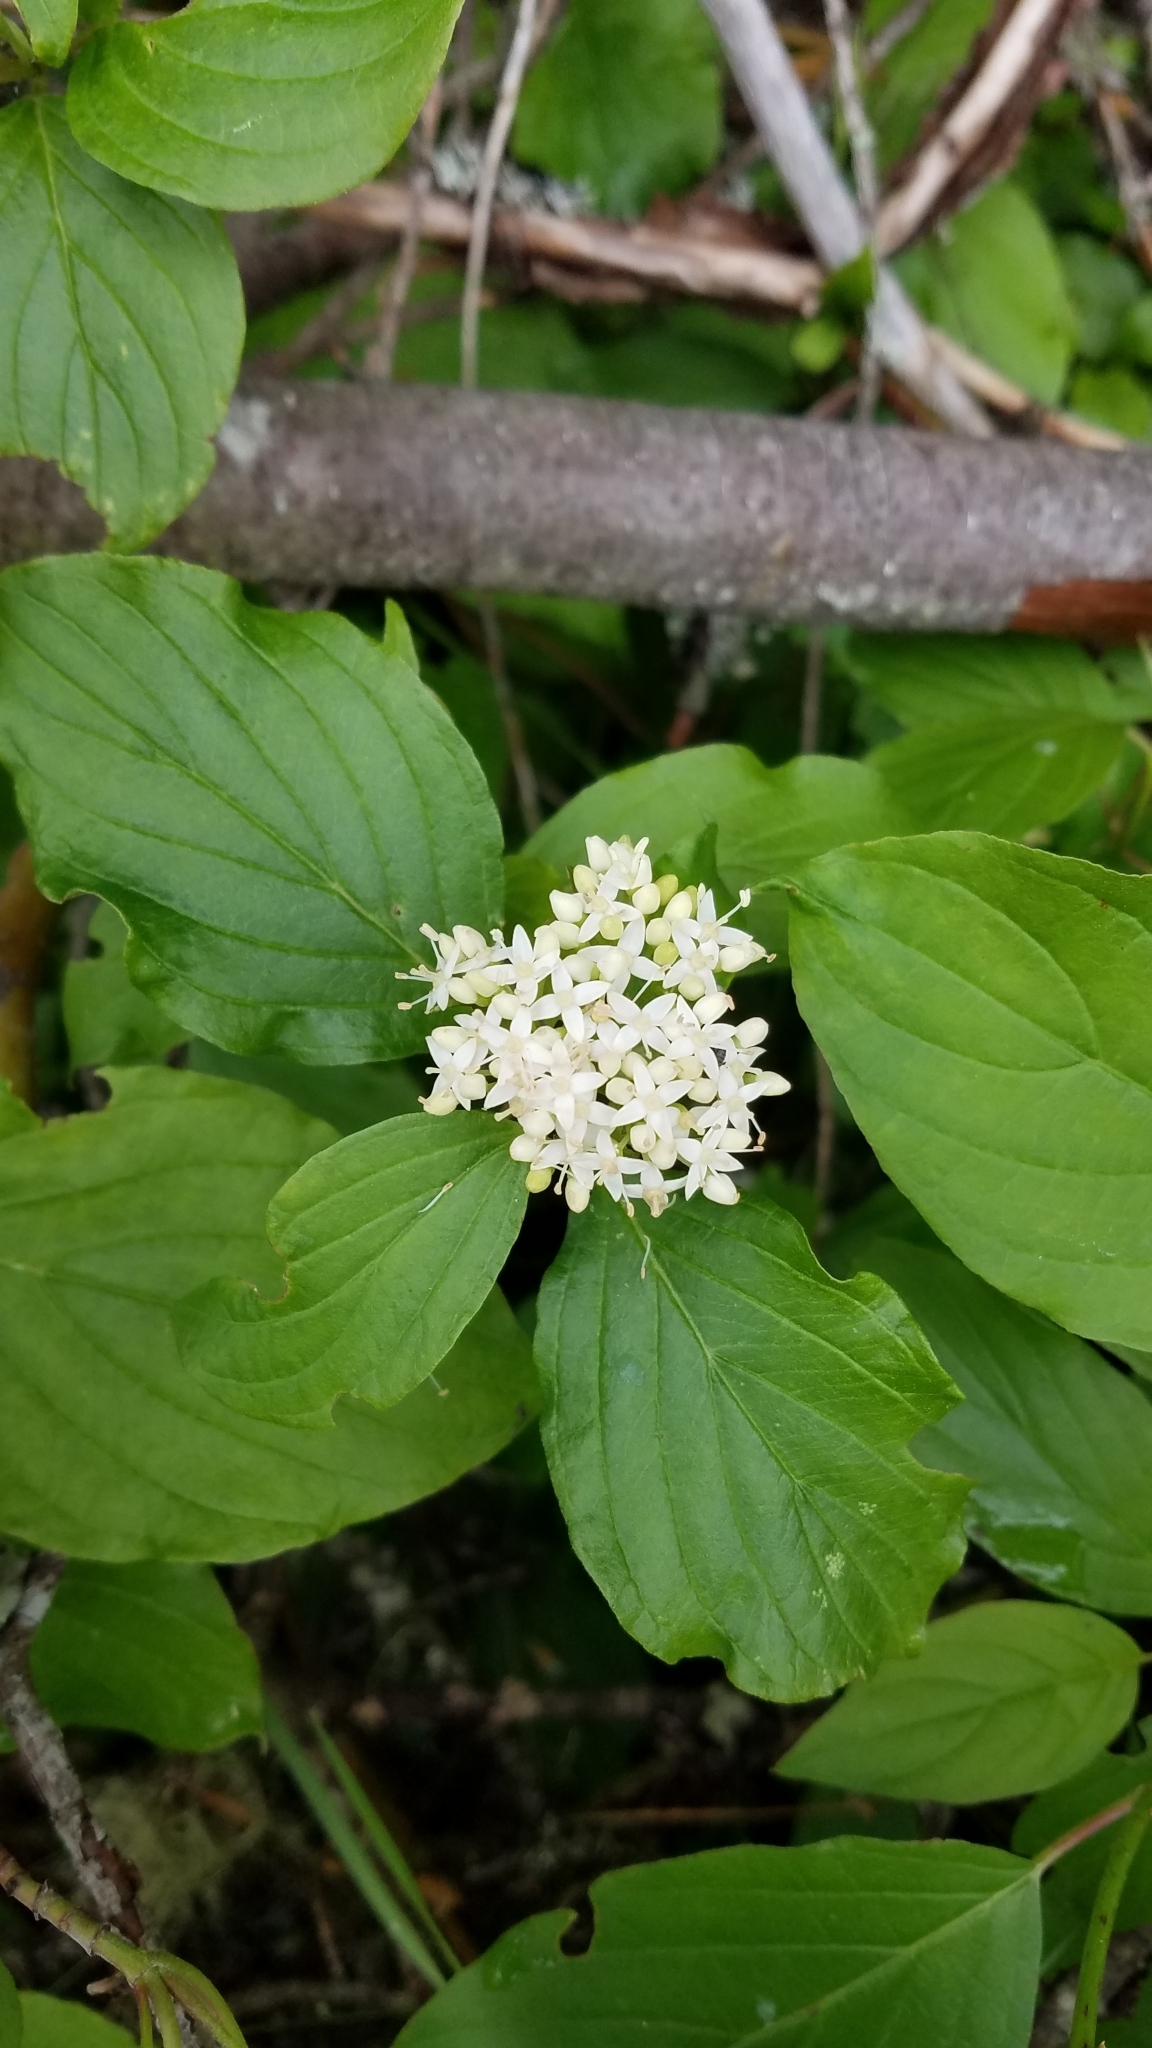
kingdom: Plantae
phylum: Tracheophyta
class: Magnoliopsida
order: Cornales
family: Cornaceae
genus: Cornus
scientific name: Cornus sericea
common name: Red-osier dogwood
